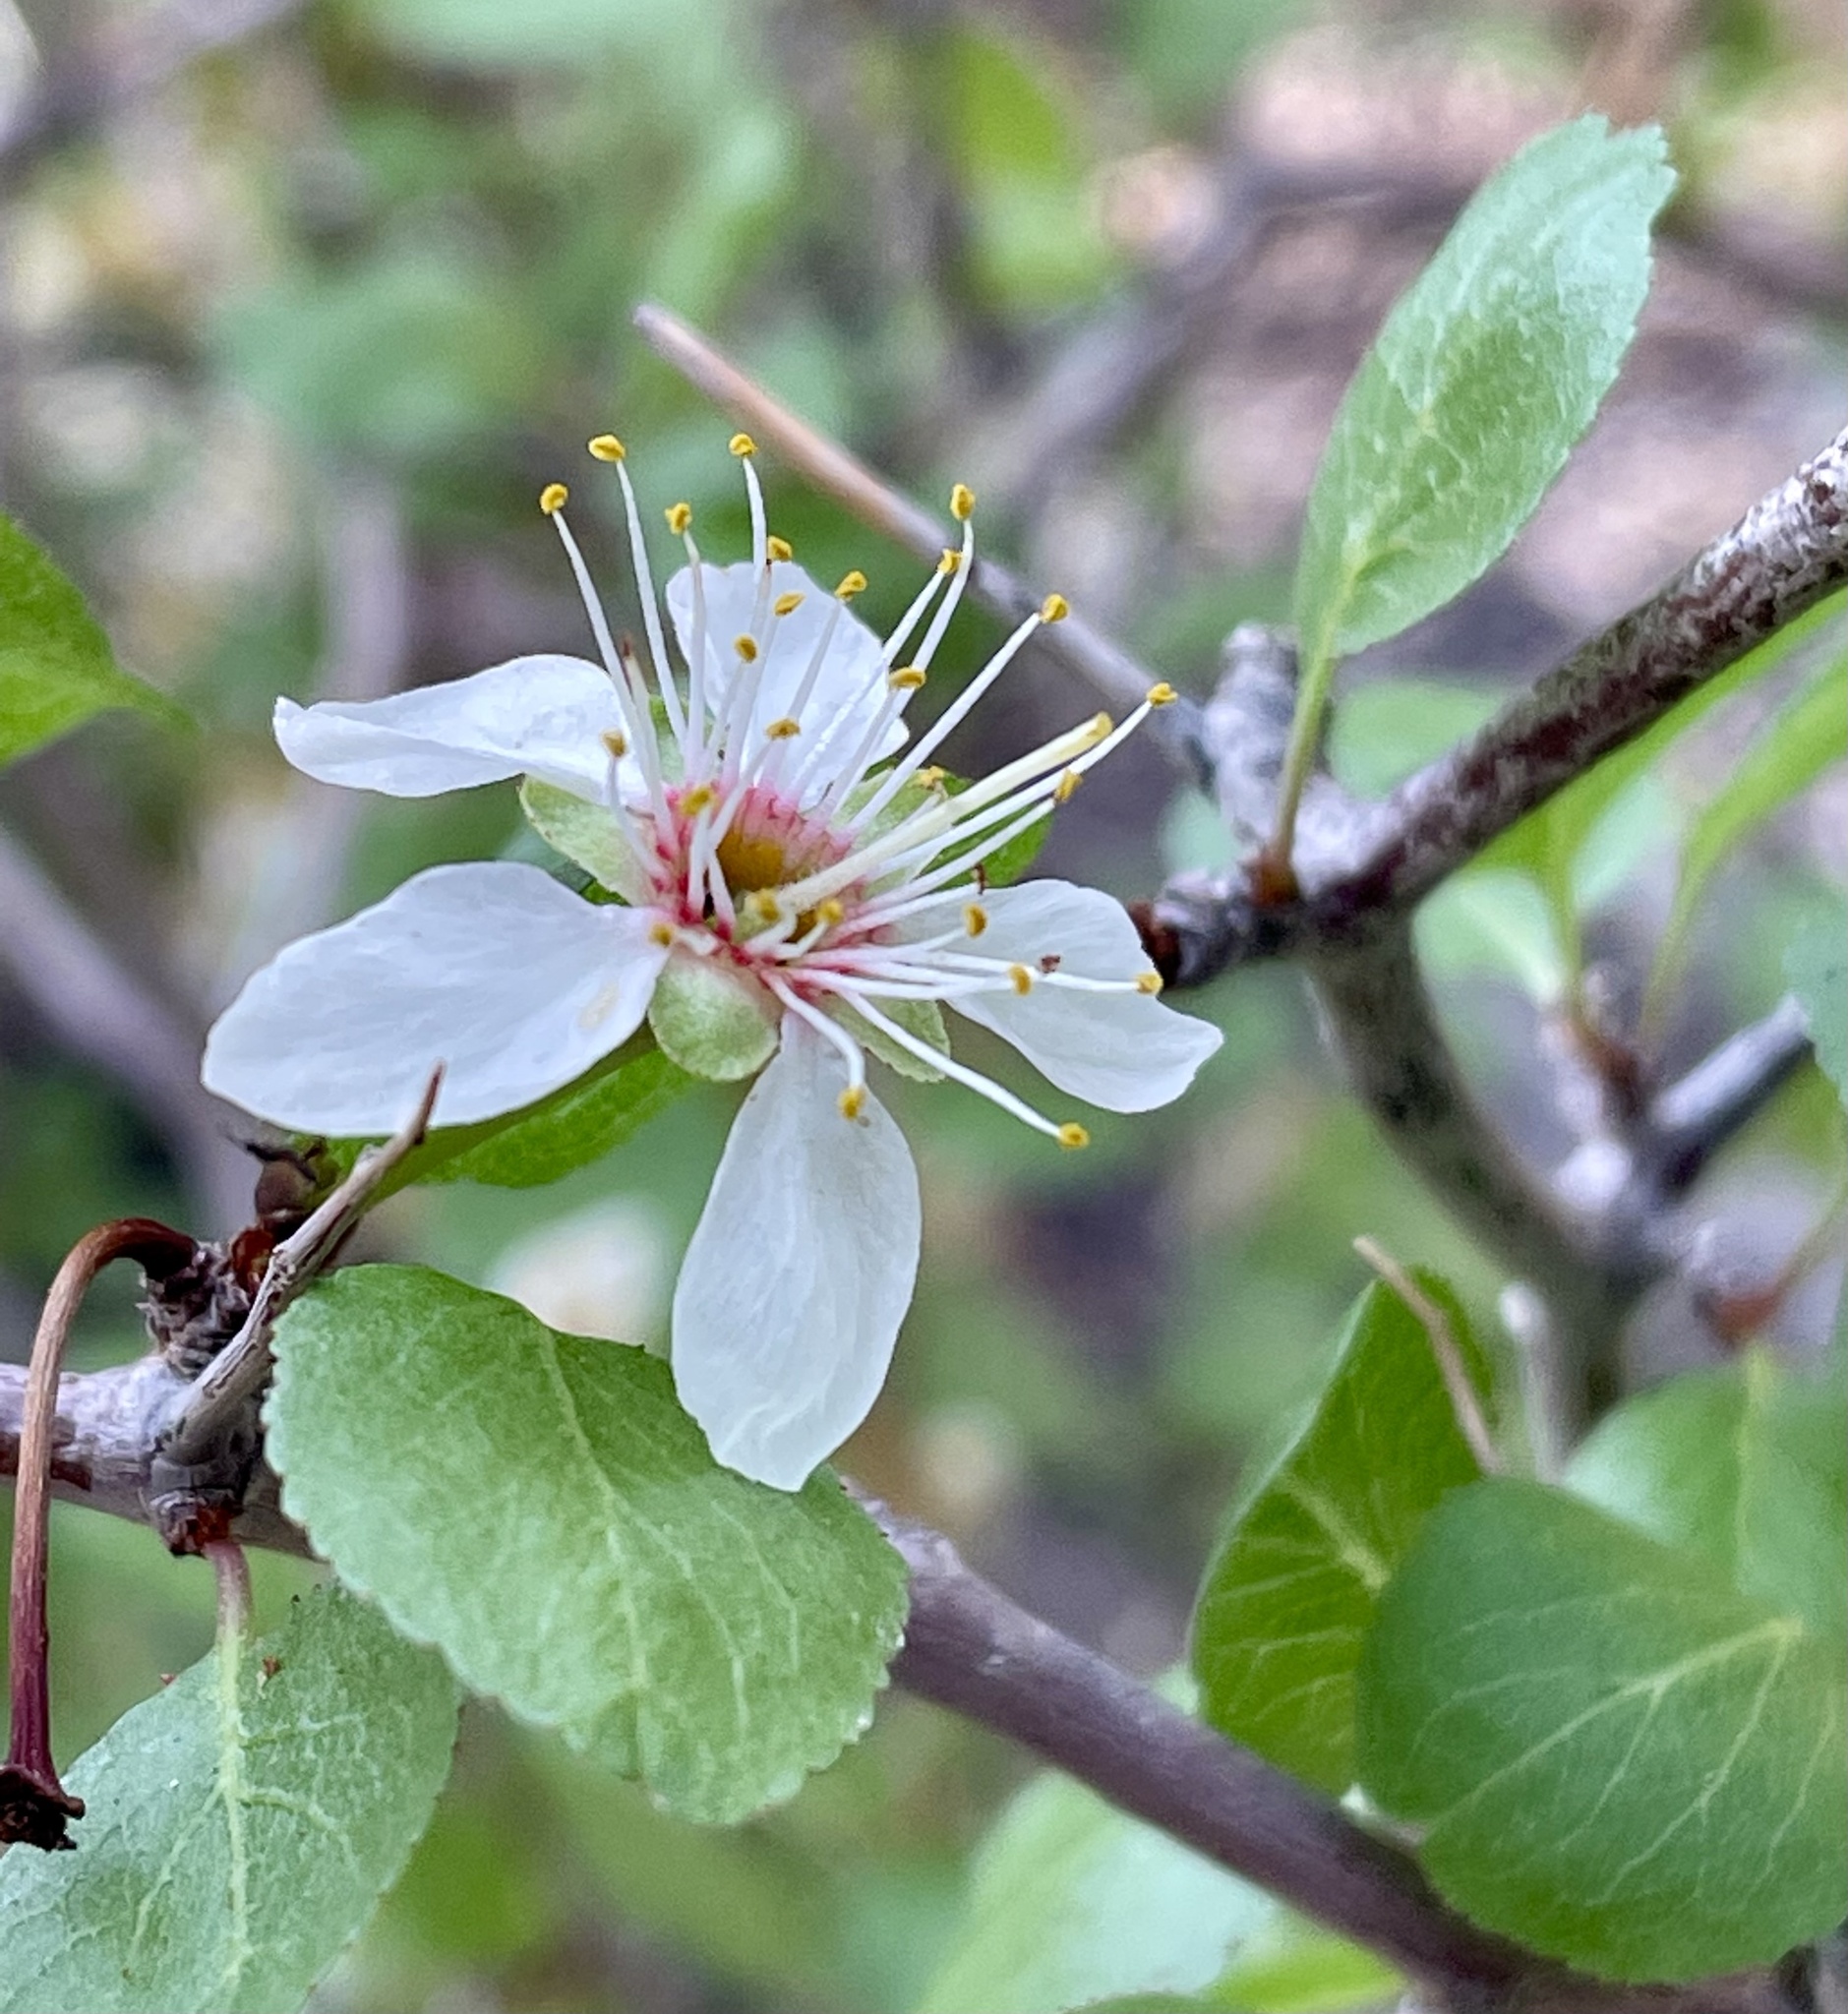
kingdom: Plantae
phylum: Tracheophyta
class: Magnoliopsida
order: Rosales
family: Rosaceae
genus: Prunus
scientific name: Prunus fremontii
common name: Desert apricot
